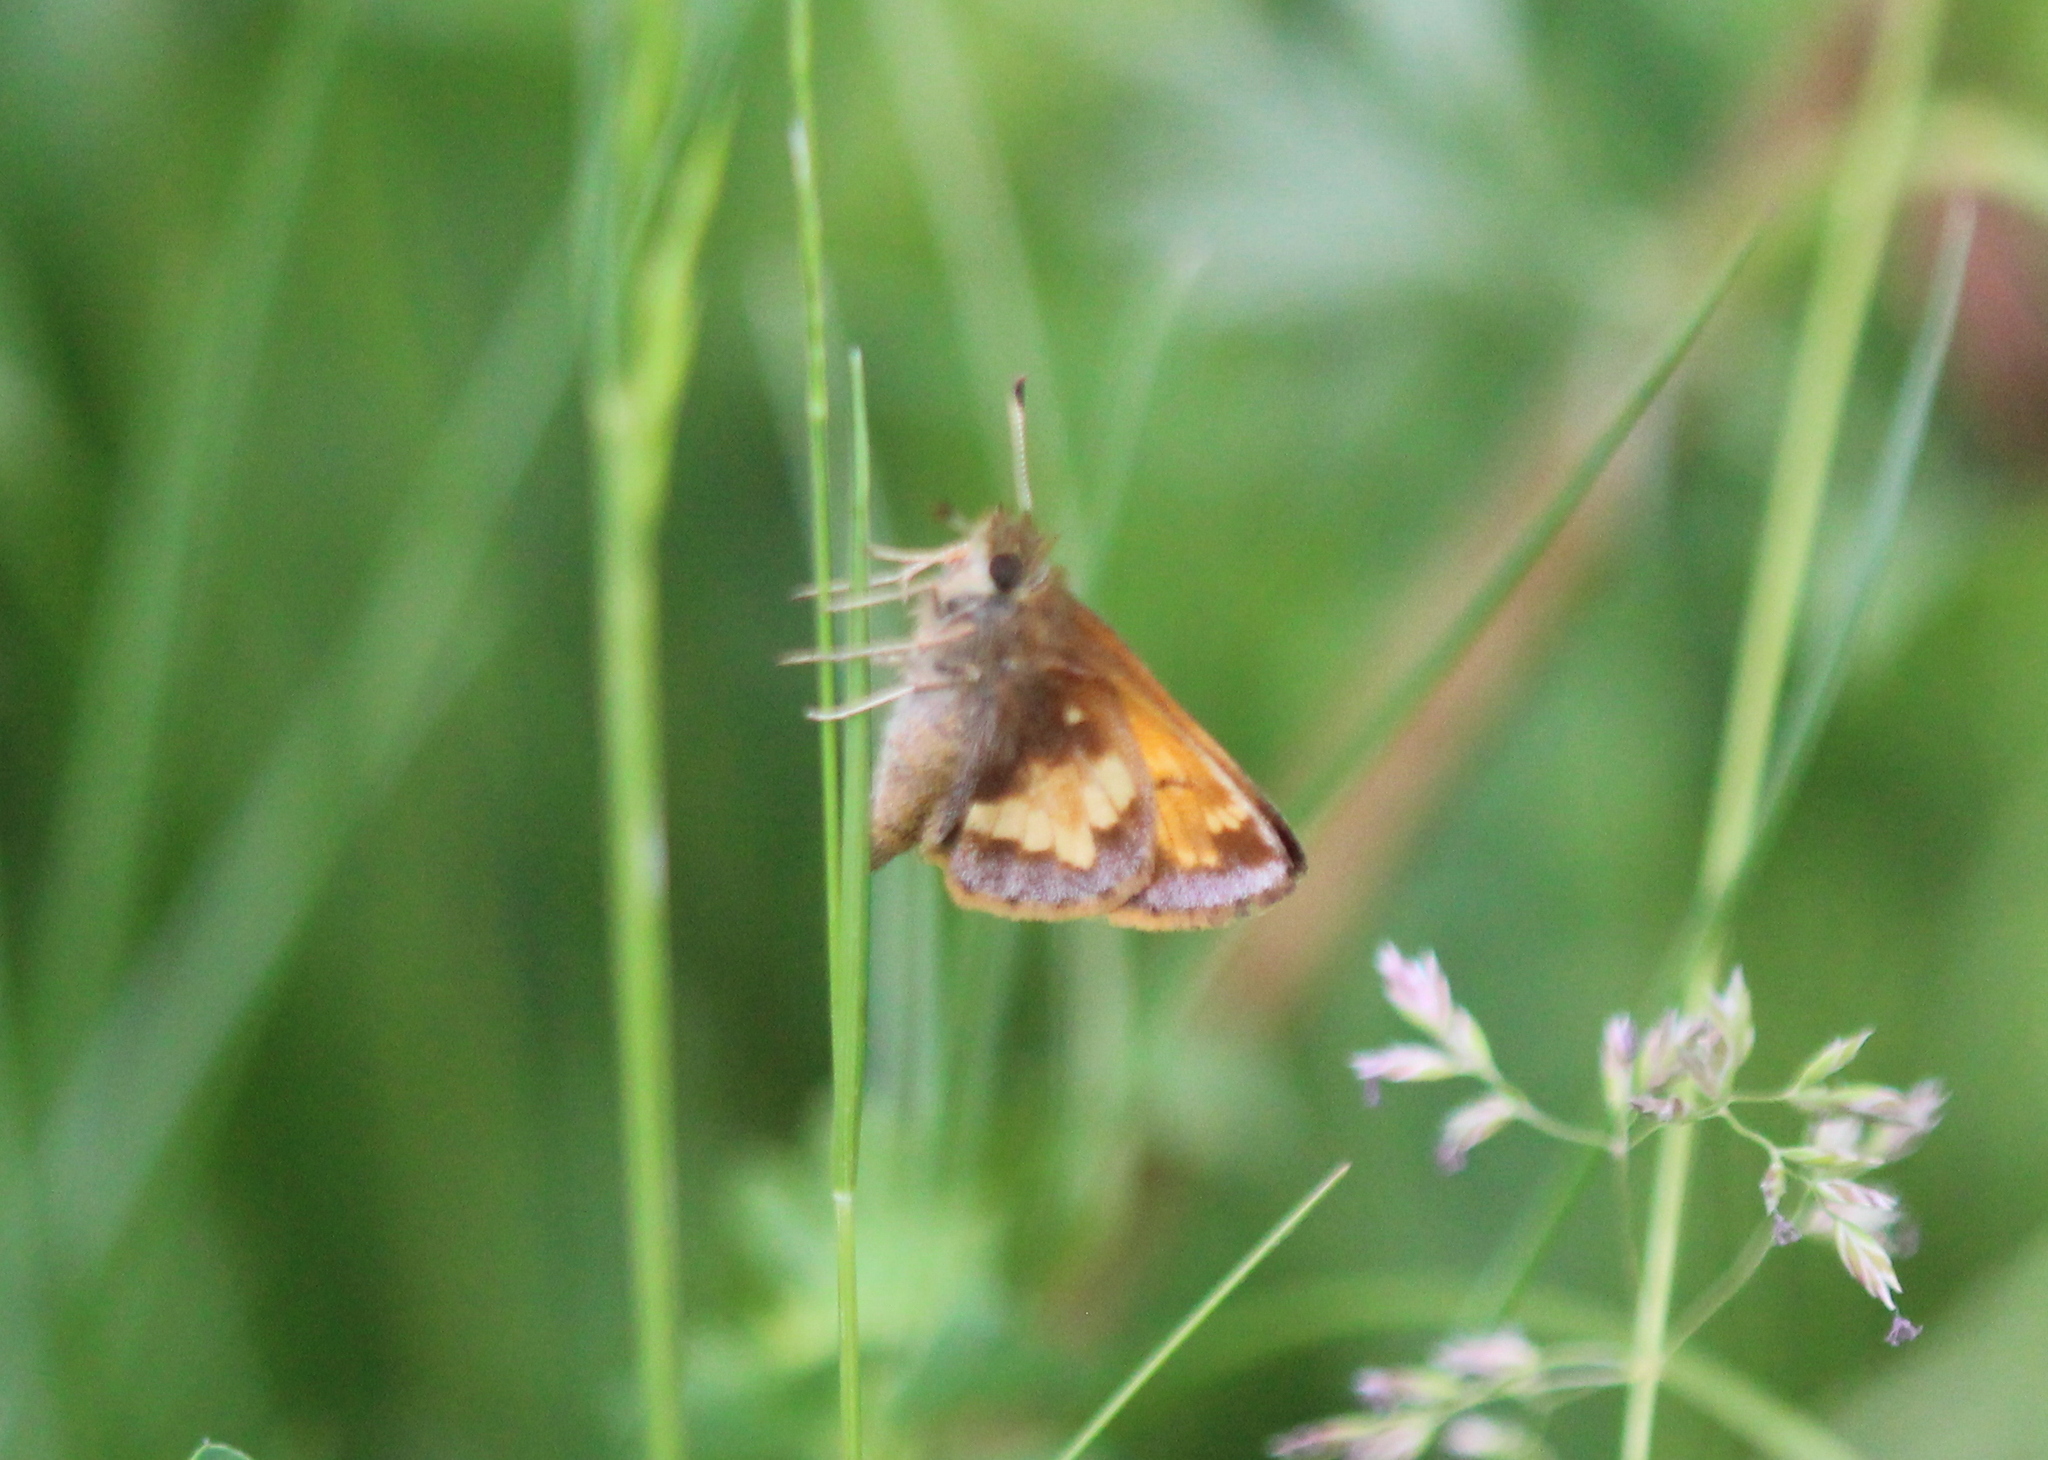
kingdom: Animalia
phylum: Arthropoda
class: Insecta
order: Lepidoptera
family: Hesperiidae
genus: Lon
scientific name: Lon hobomok
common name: Hobomok skipper
